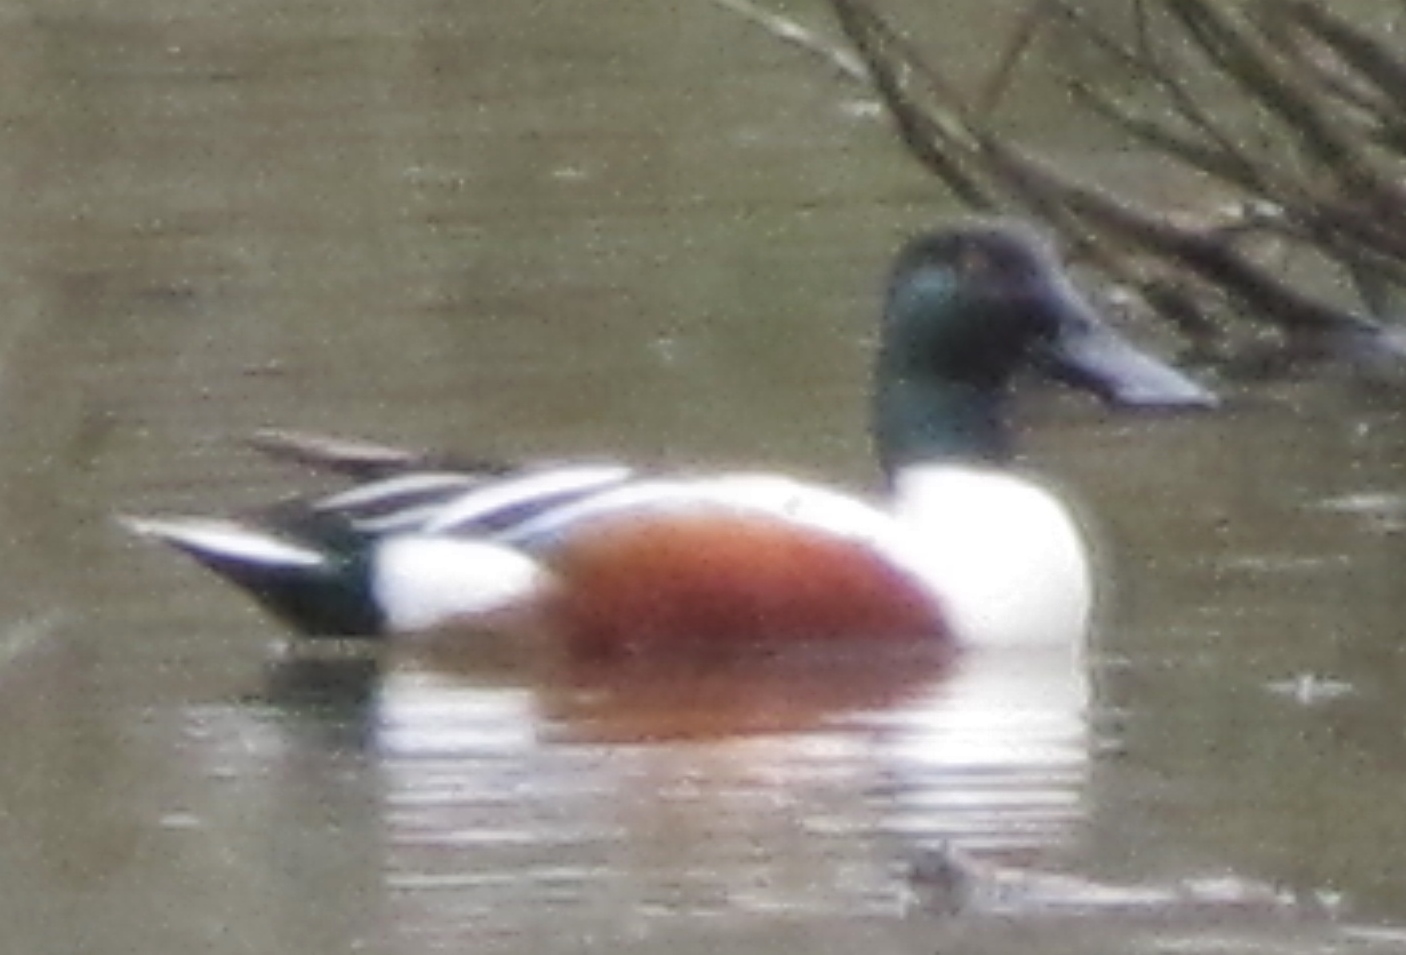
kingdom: Animalia
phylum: Chordata
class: Aves
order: Anseriformes
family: Anatidae
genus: Spatula
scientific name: Spatula clypeata
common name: Northern shoveler
